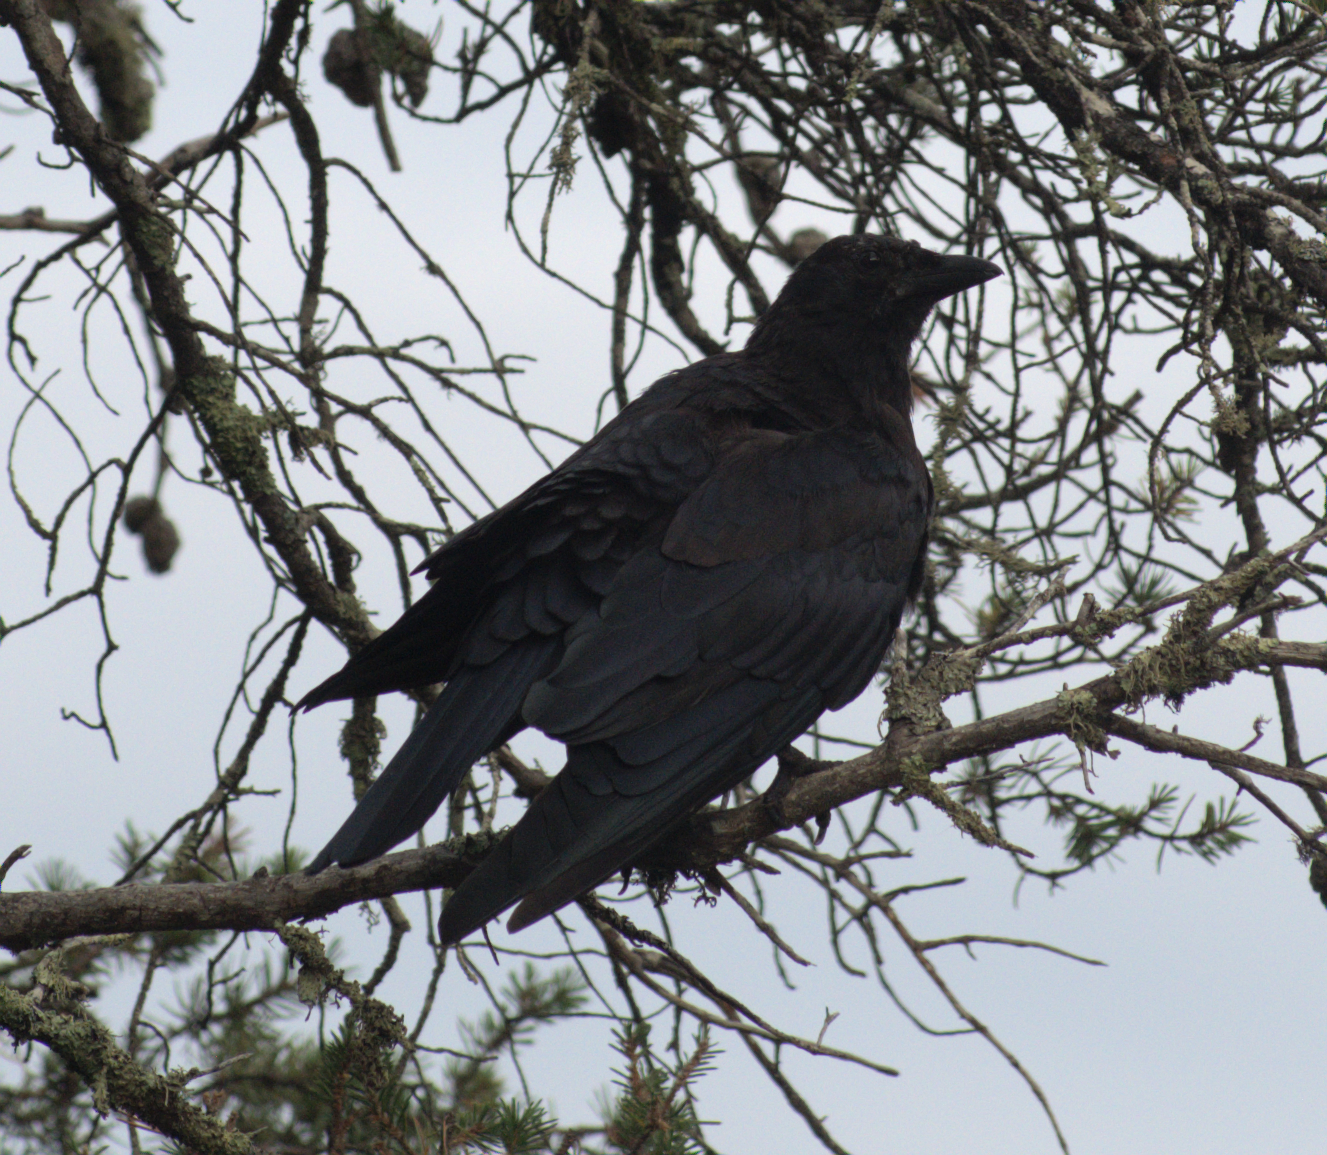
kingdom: Animalia
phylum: Chordata
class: Aves
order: Passeriformes
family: Corvidae
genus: Corvus
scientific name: Corvus corax
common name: Common raven
